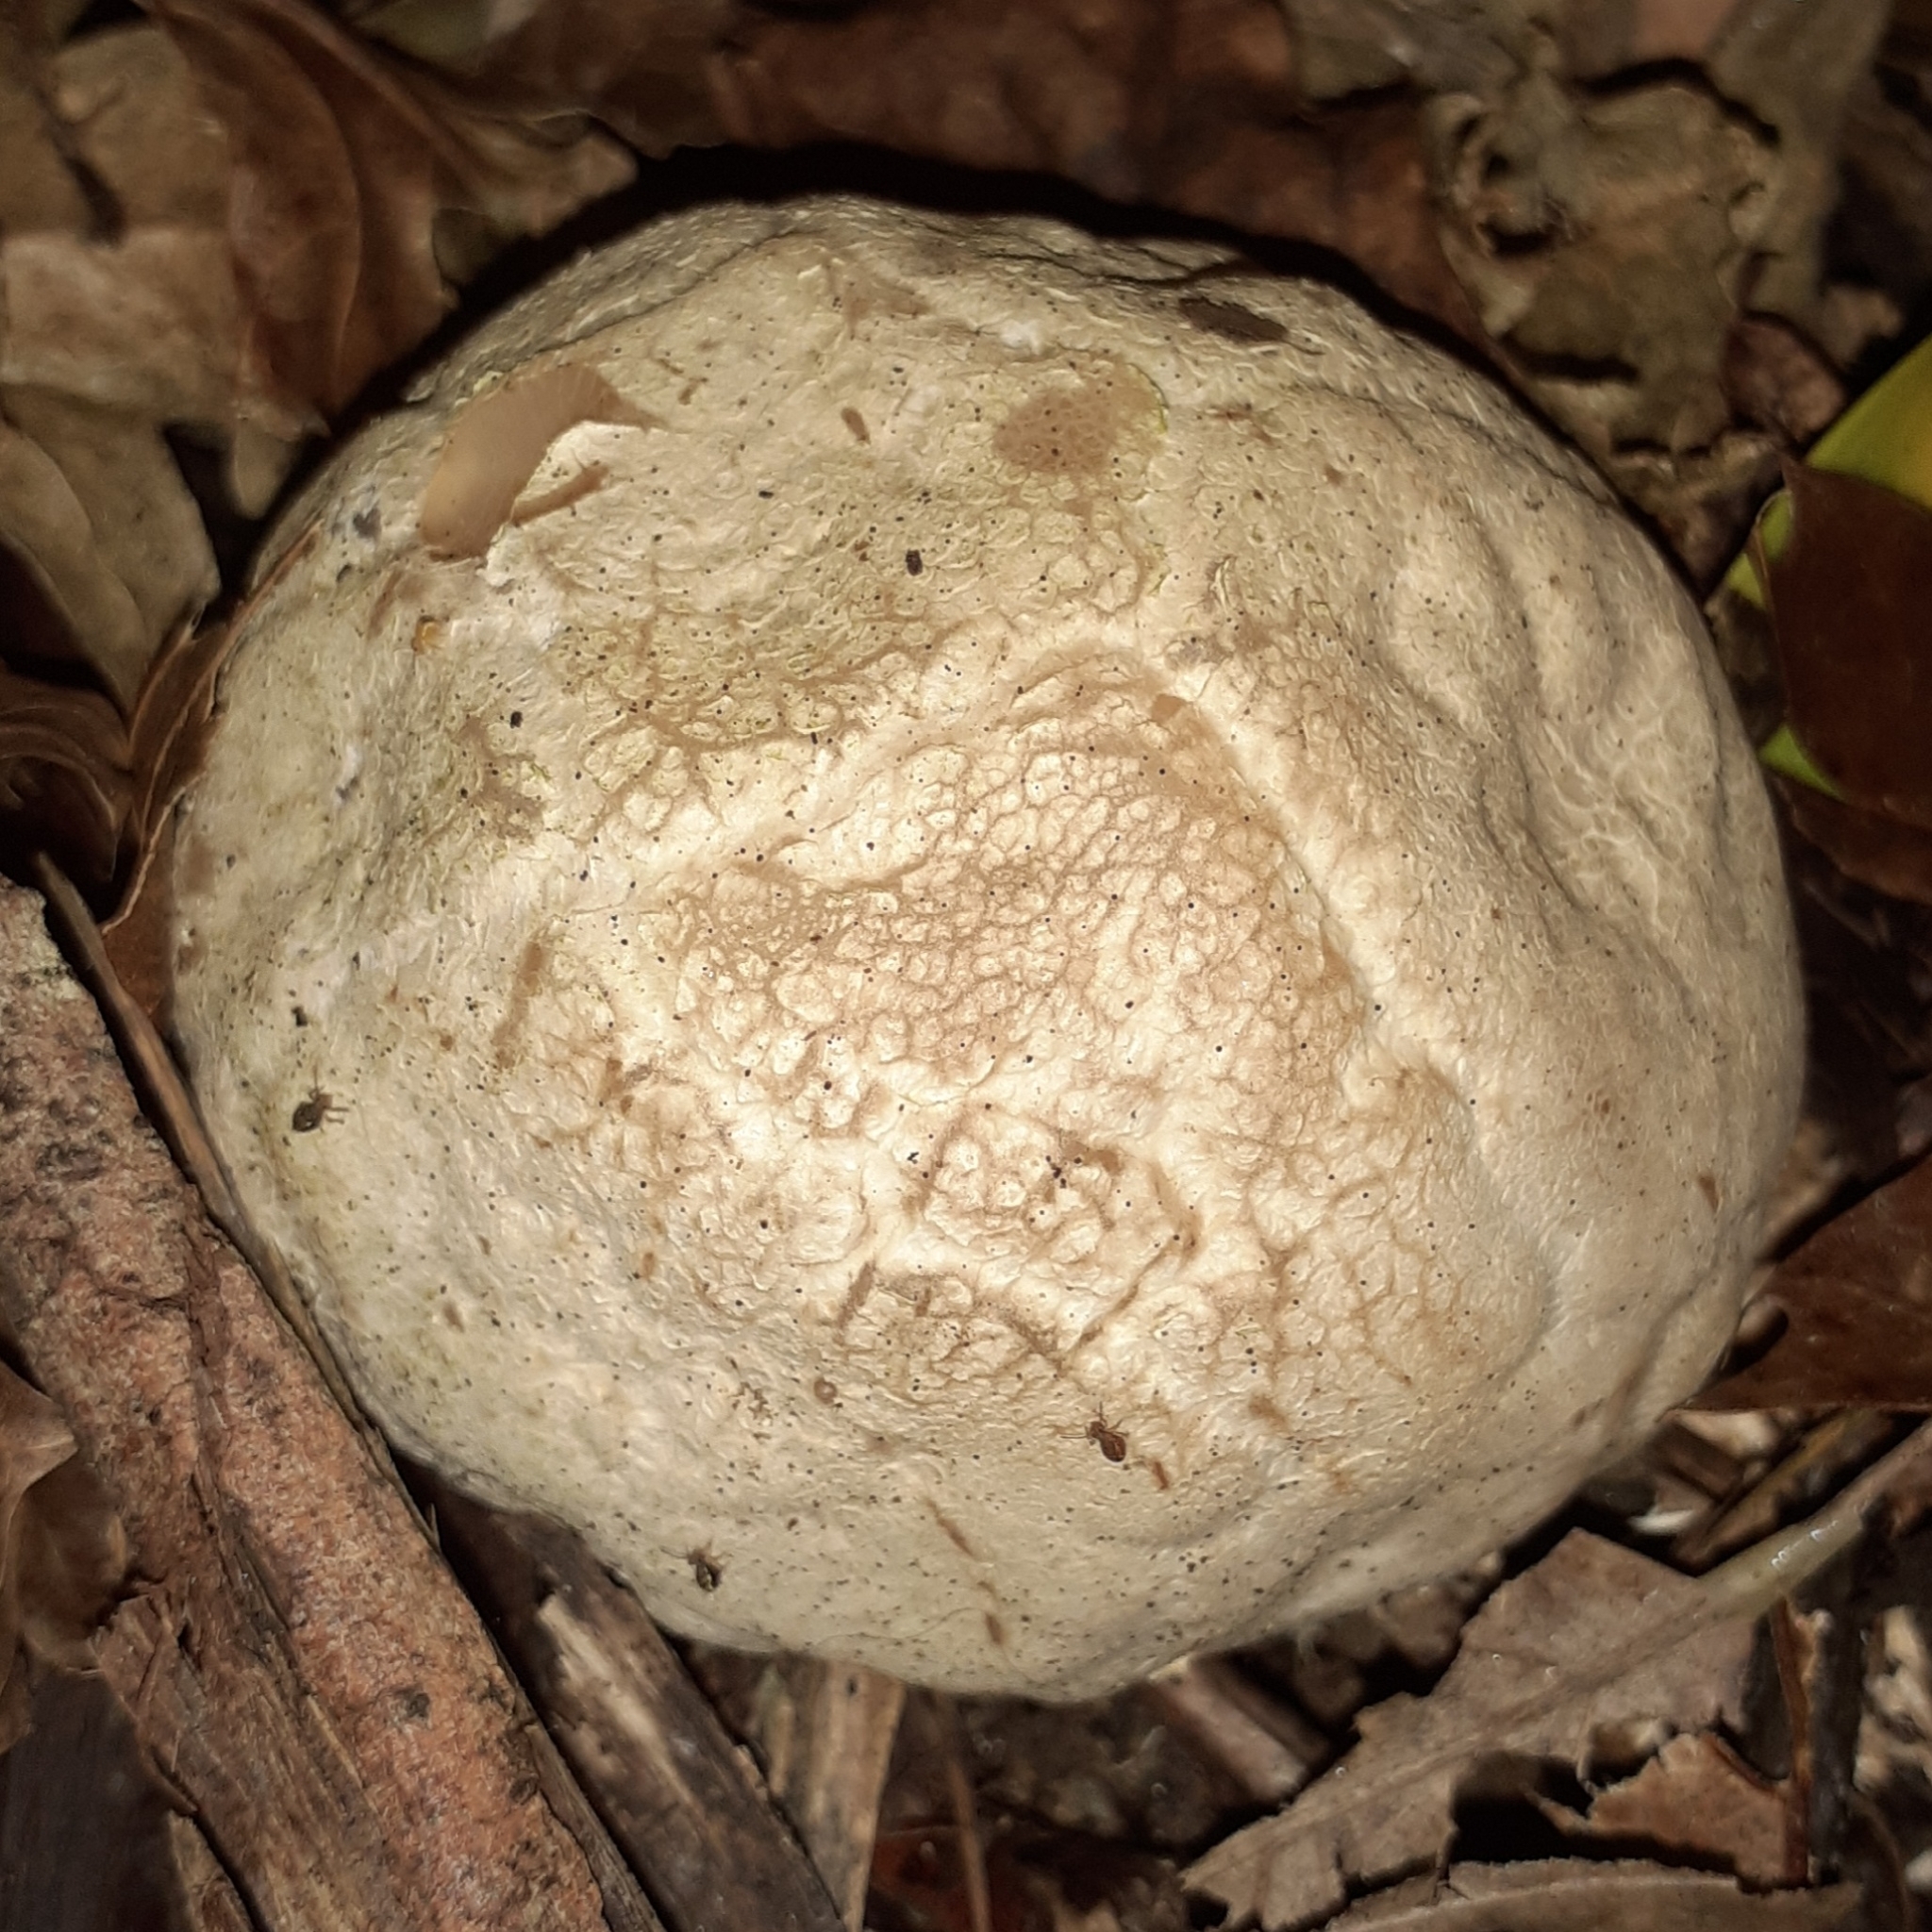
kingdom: Fungi
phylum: Basidiomycota
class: Agaricomycetes
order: Phallales
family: Phallaceae
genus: Clathrus
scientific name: Clathrus ruber
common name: Red cage
